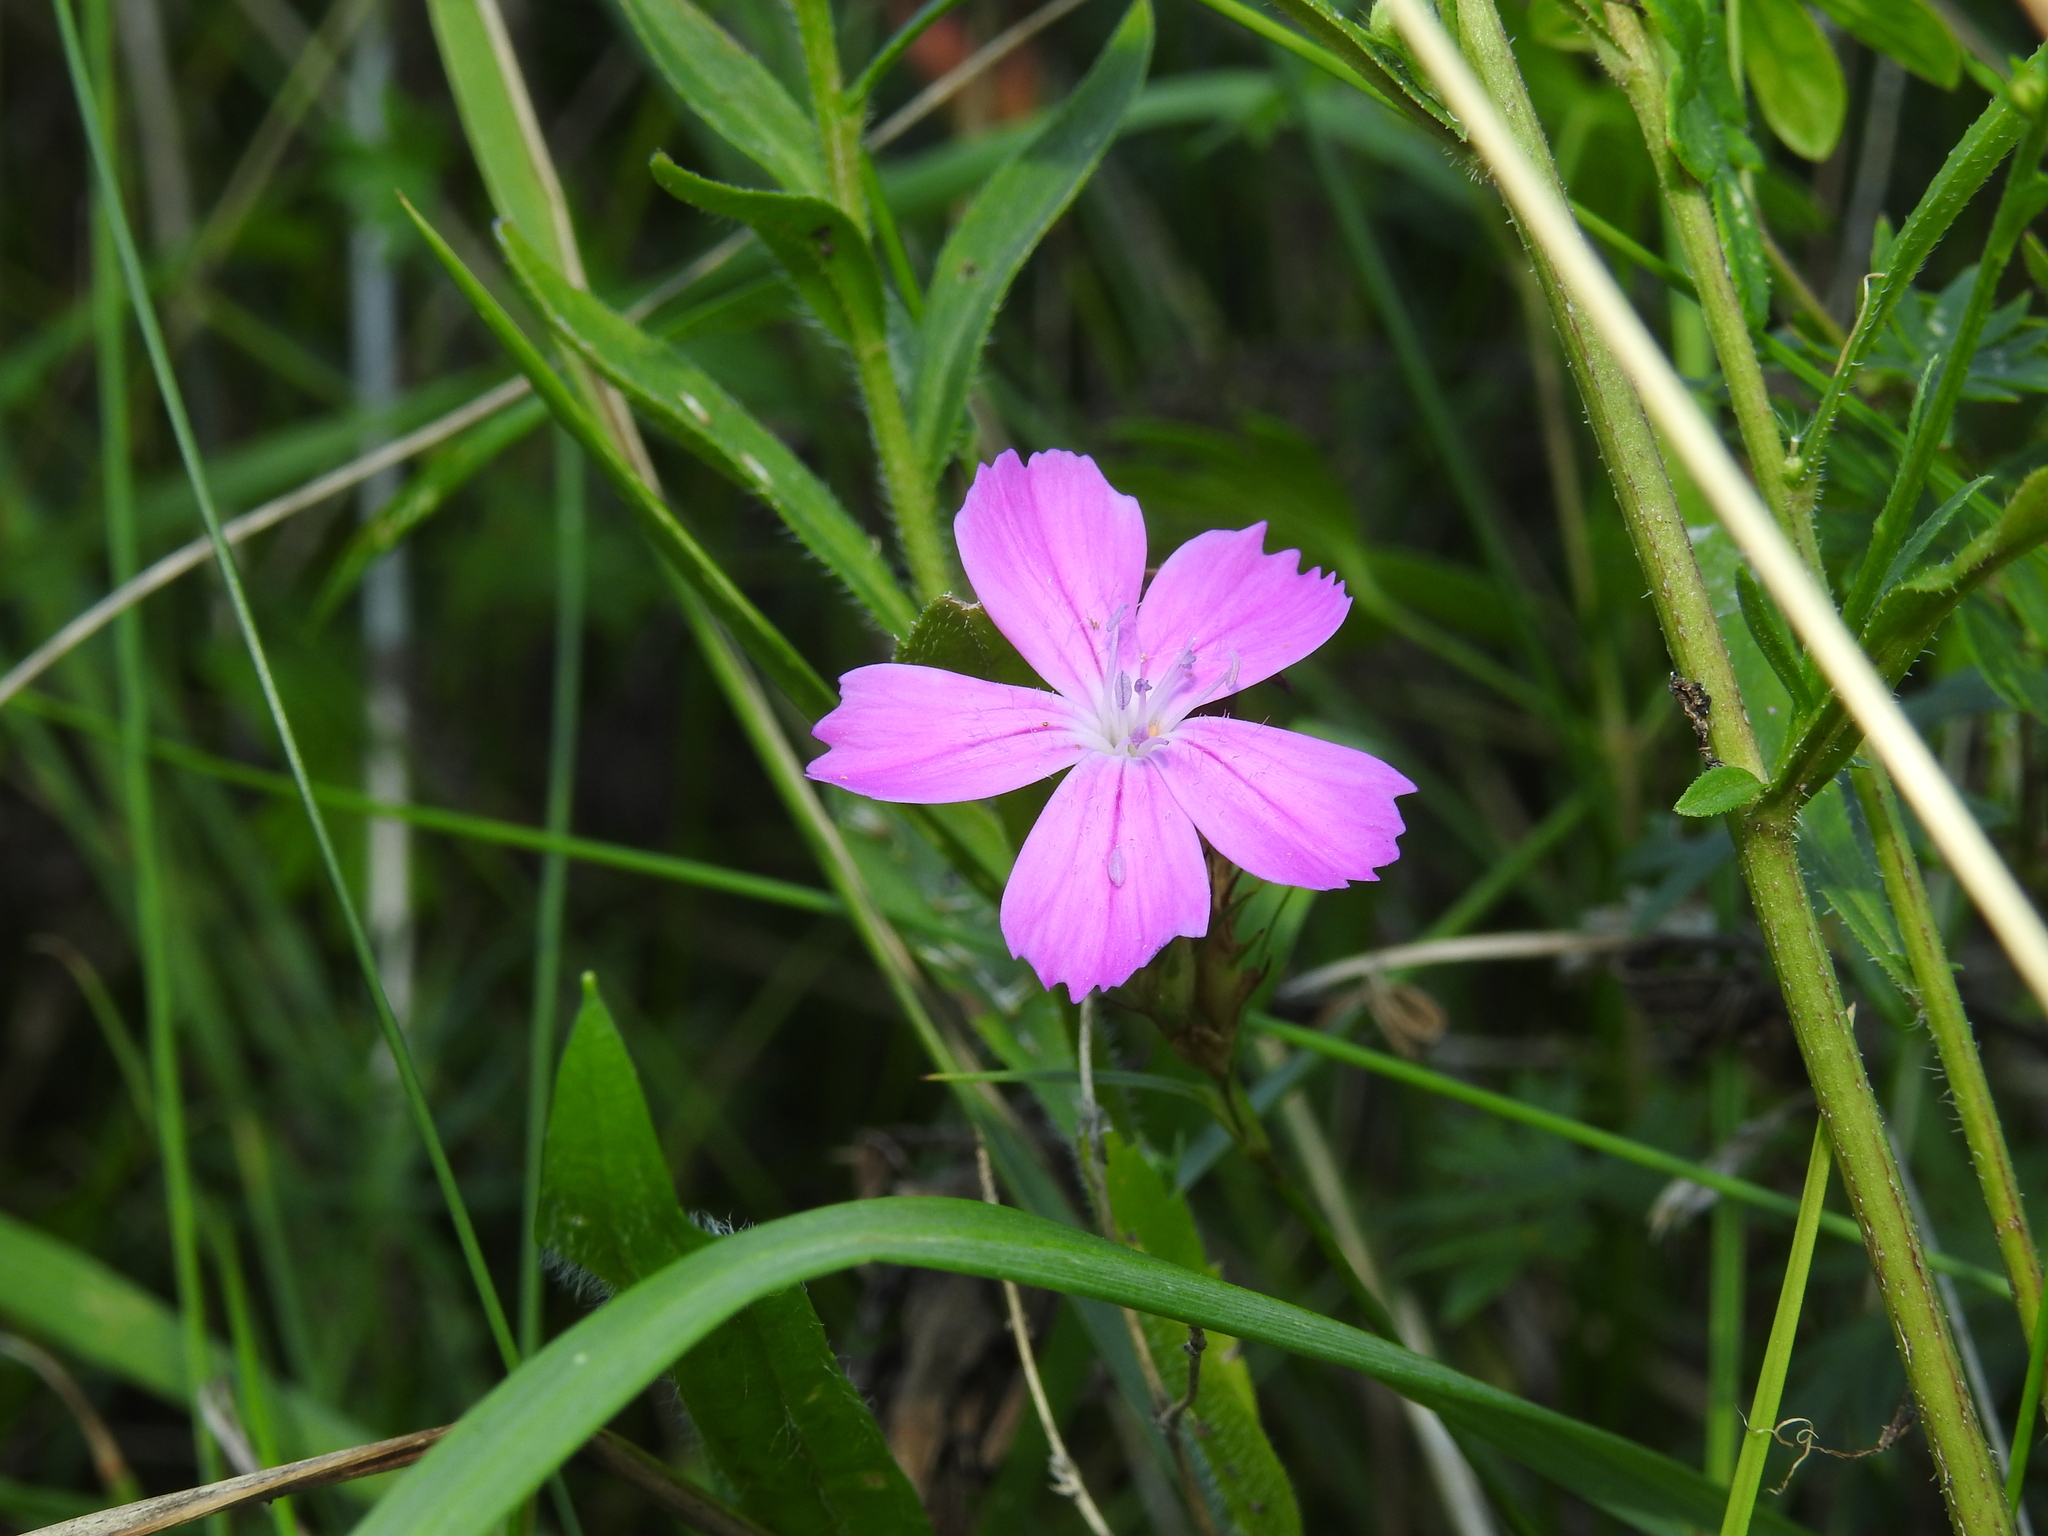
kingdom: Plantae
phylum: Tracheophyta
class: Magnoliopsida
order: Caryophyllales
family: Caryophyllaceae
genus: Dianthus
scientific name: Dianthus carthusianorum
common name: Carthusian pink
